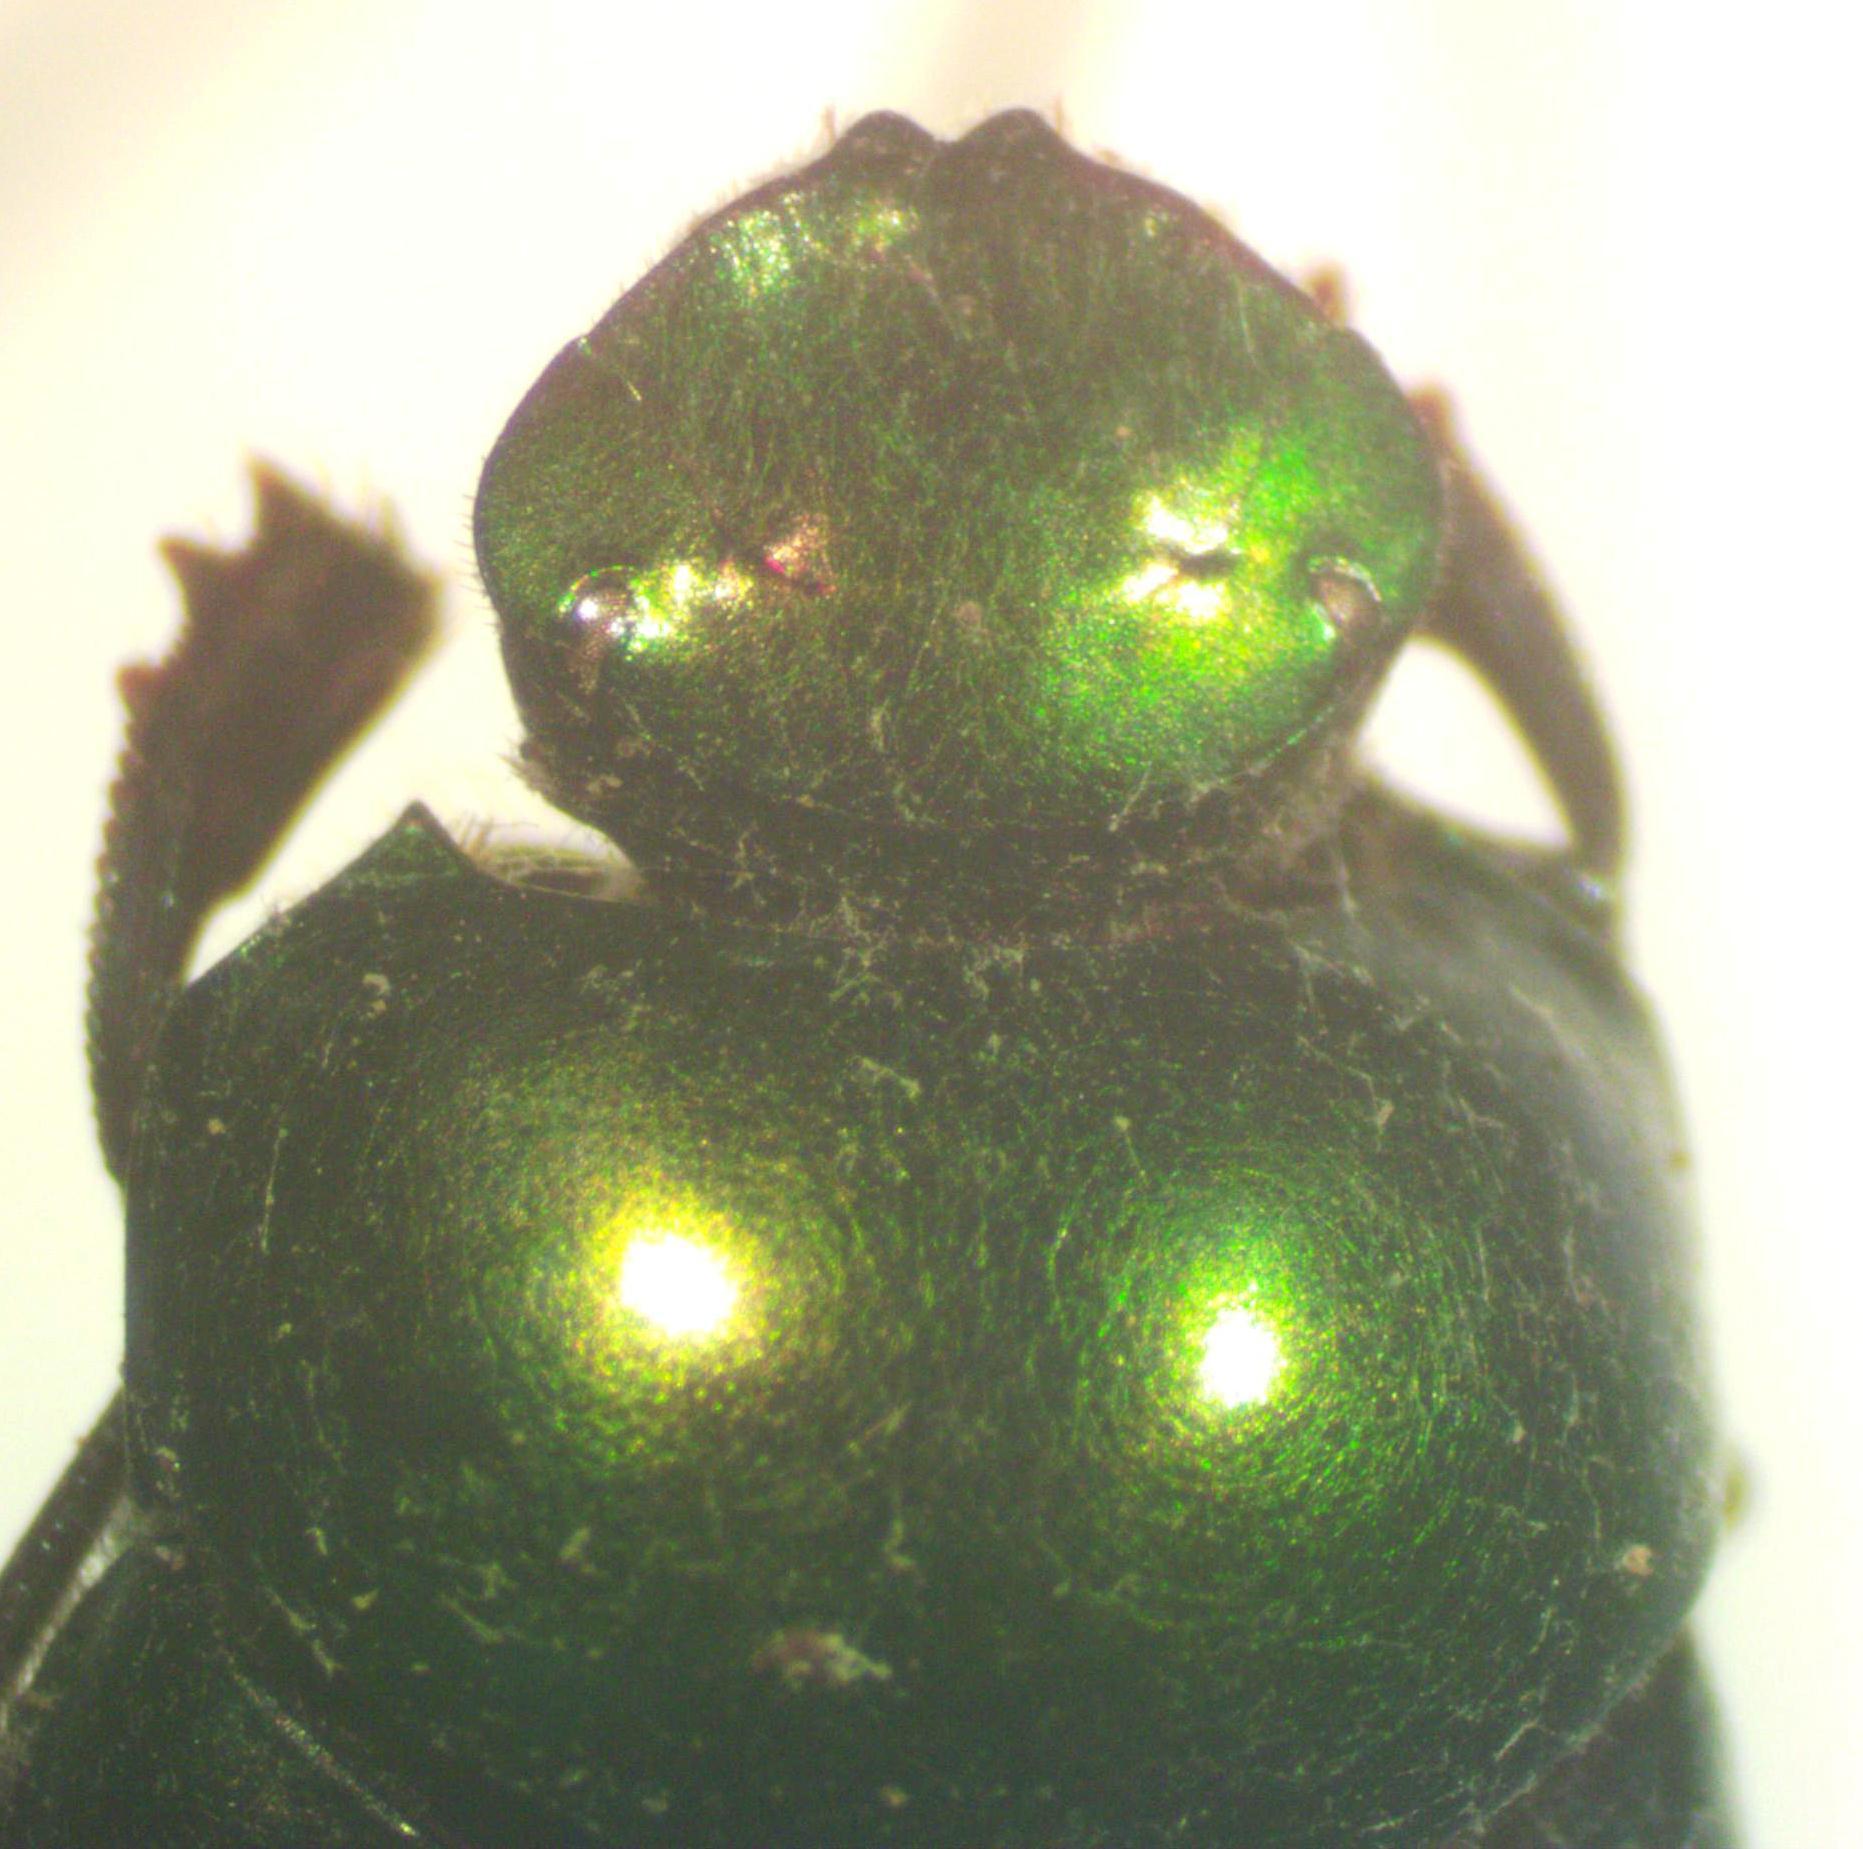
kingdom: Animalia
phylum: Arthropoda
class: Insecta
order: Coleoptera
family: Scarabaeidae
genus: Canthon
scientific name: Canthon vazquezae
